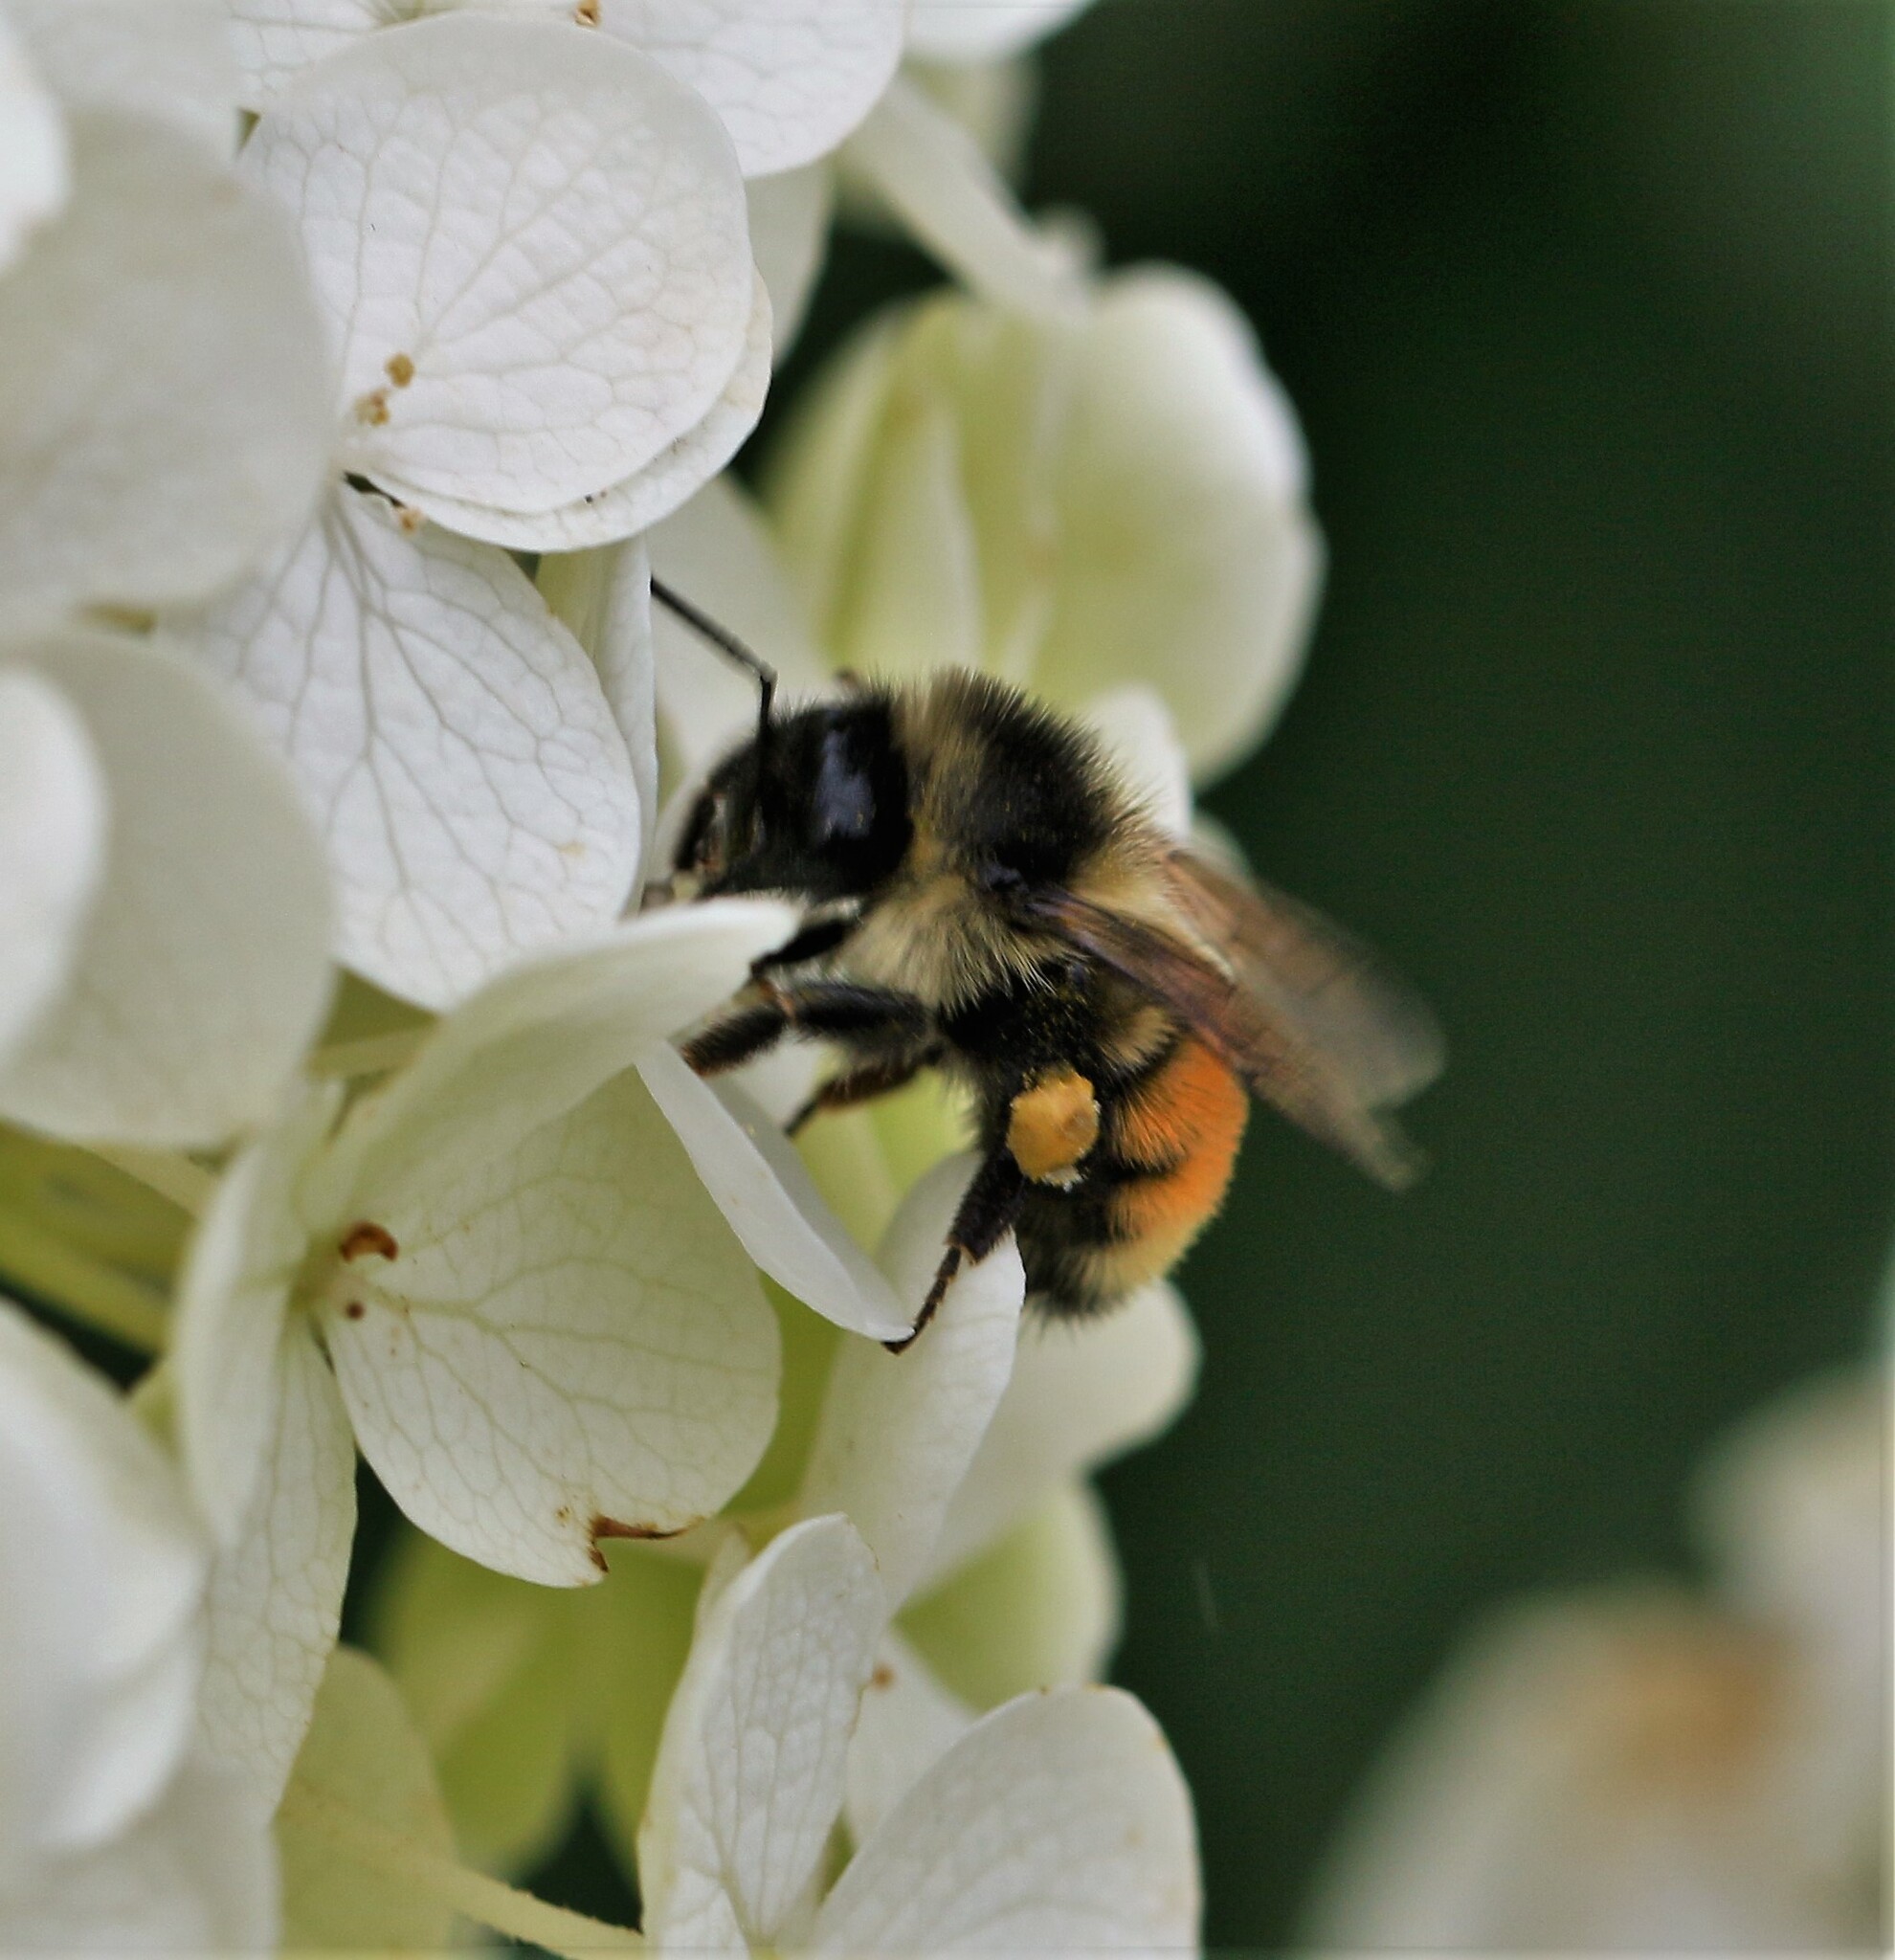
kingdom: Animalia
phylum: Arthropoda
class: Insecta
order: Hymenoptera
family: Apidae
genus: Bombus
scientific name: Bombus ternarius
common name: Tri-colored bumble bee
